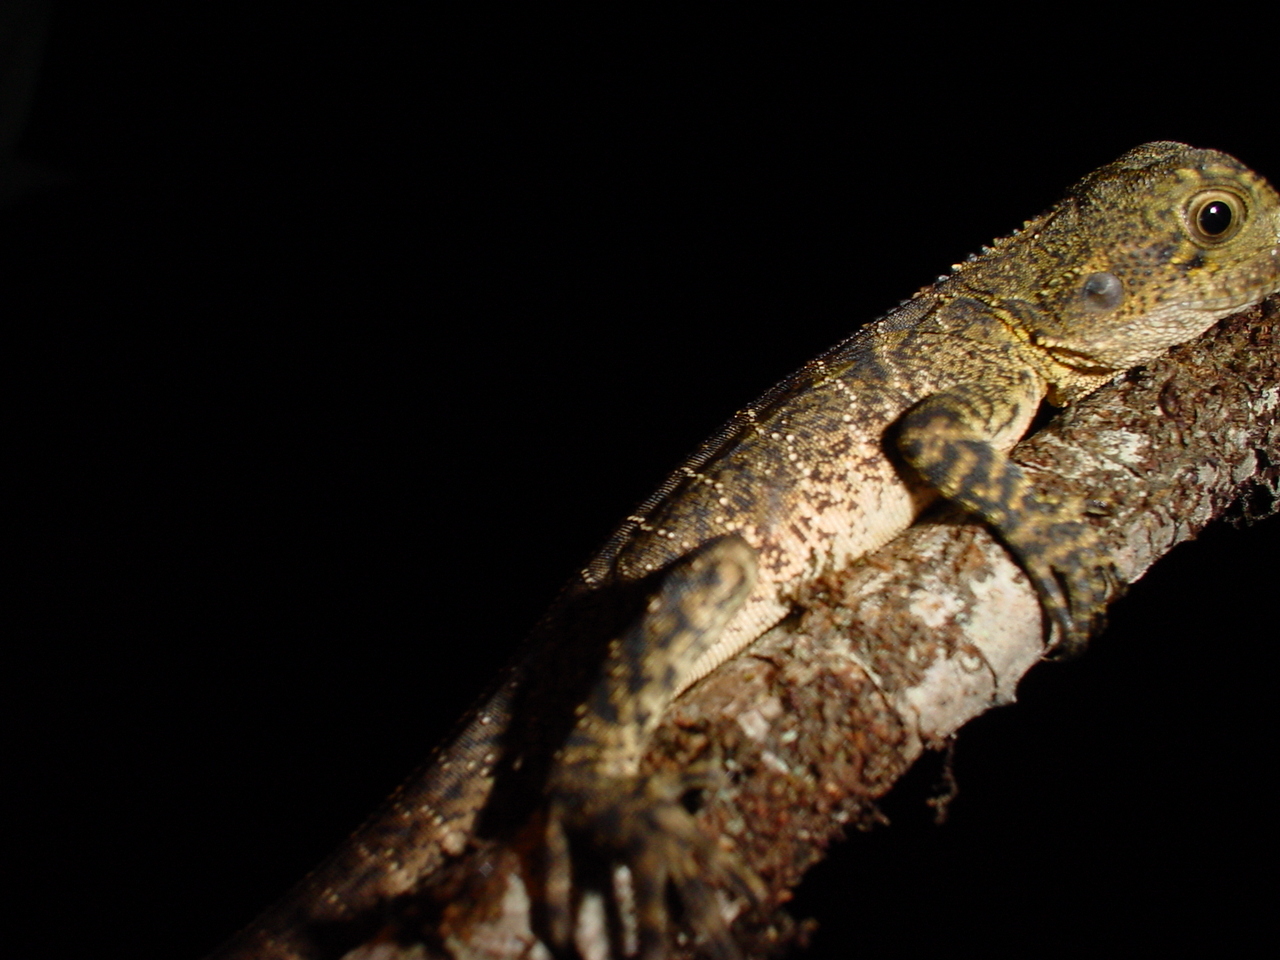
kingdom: Animalia
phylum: Chordata
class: Squamata
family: Agamidae
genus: Intellagama
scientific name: Intellagama lesueurii
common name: Eastern water dragon
